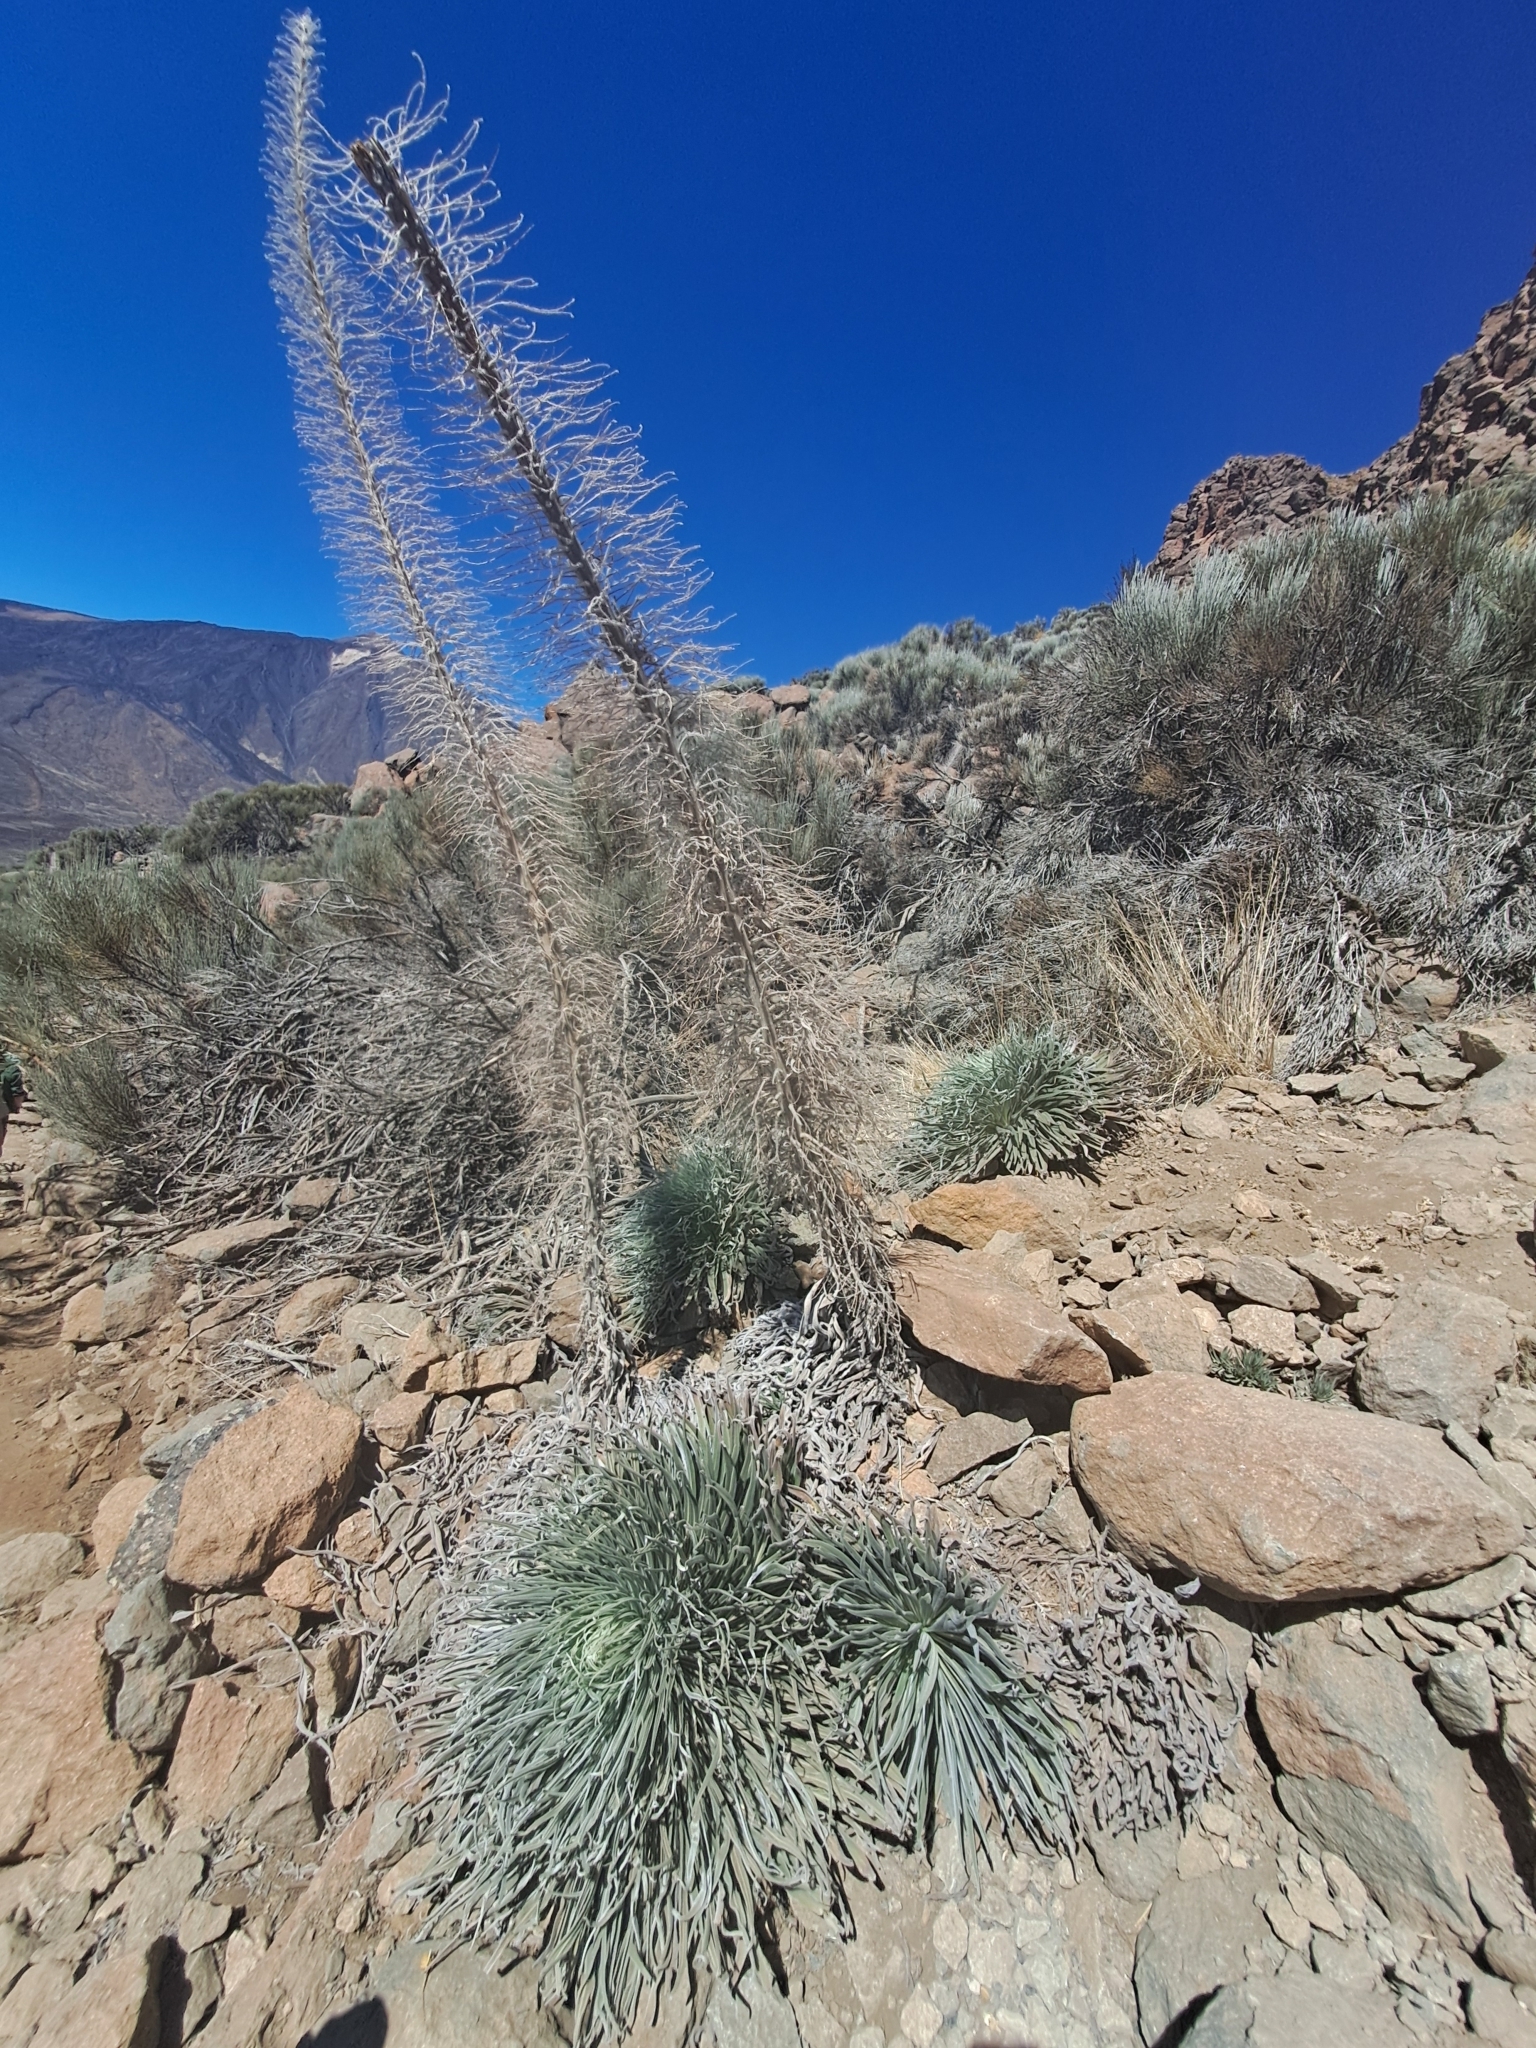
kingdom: Plantae
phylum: Tracheophyta
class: Magnoliopsida
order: Boraginales
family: Boraginaceae
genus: Echium
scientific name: Echium wildpretii
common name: Tower-of-jewels
